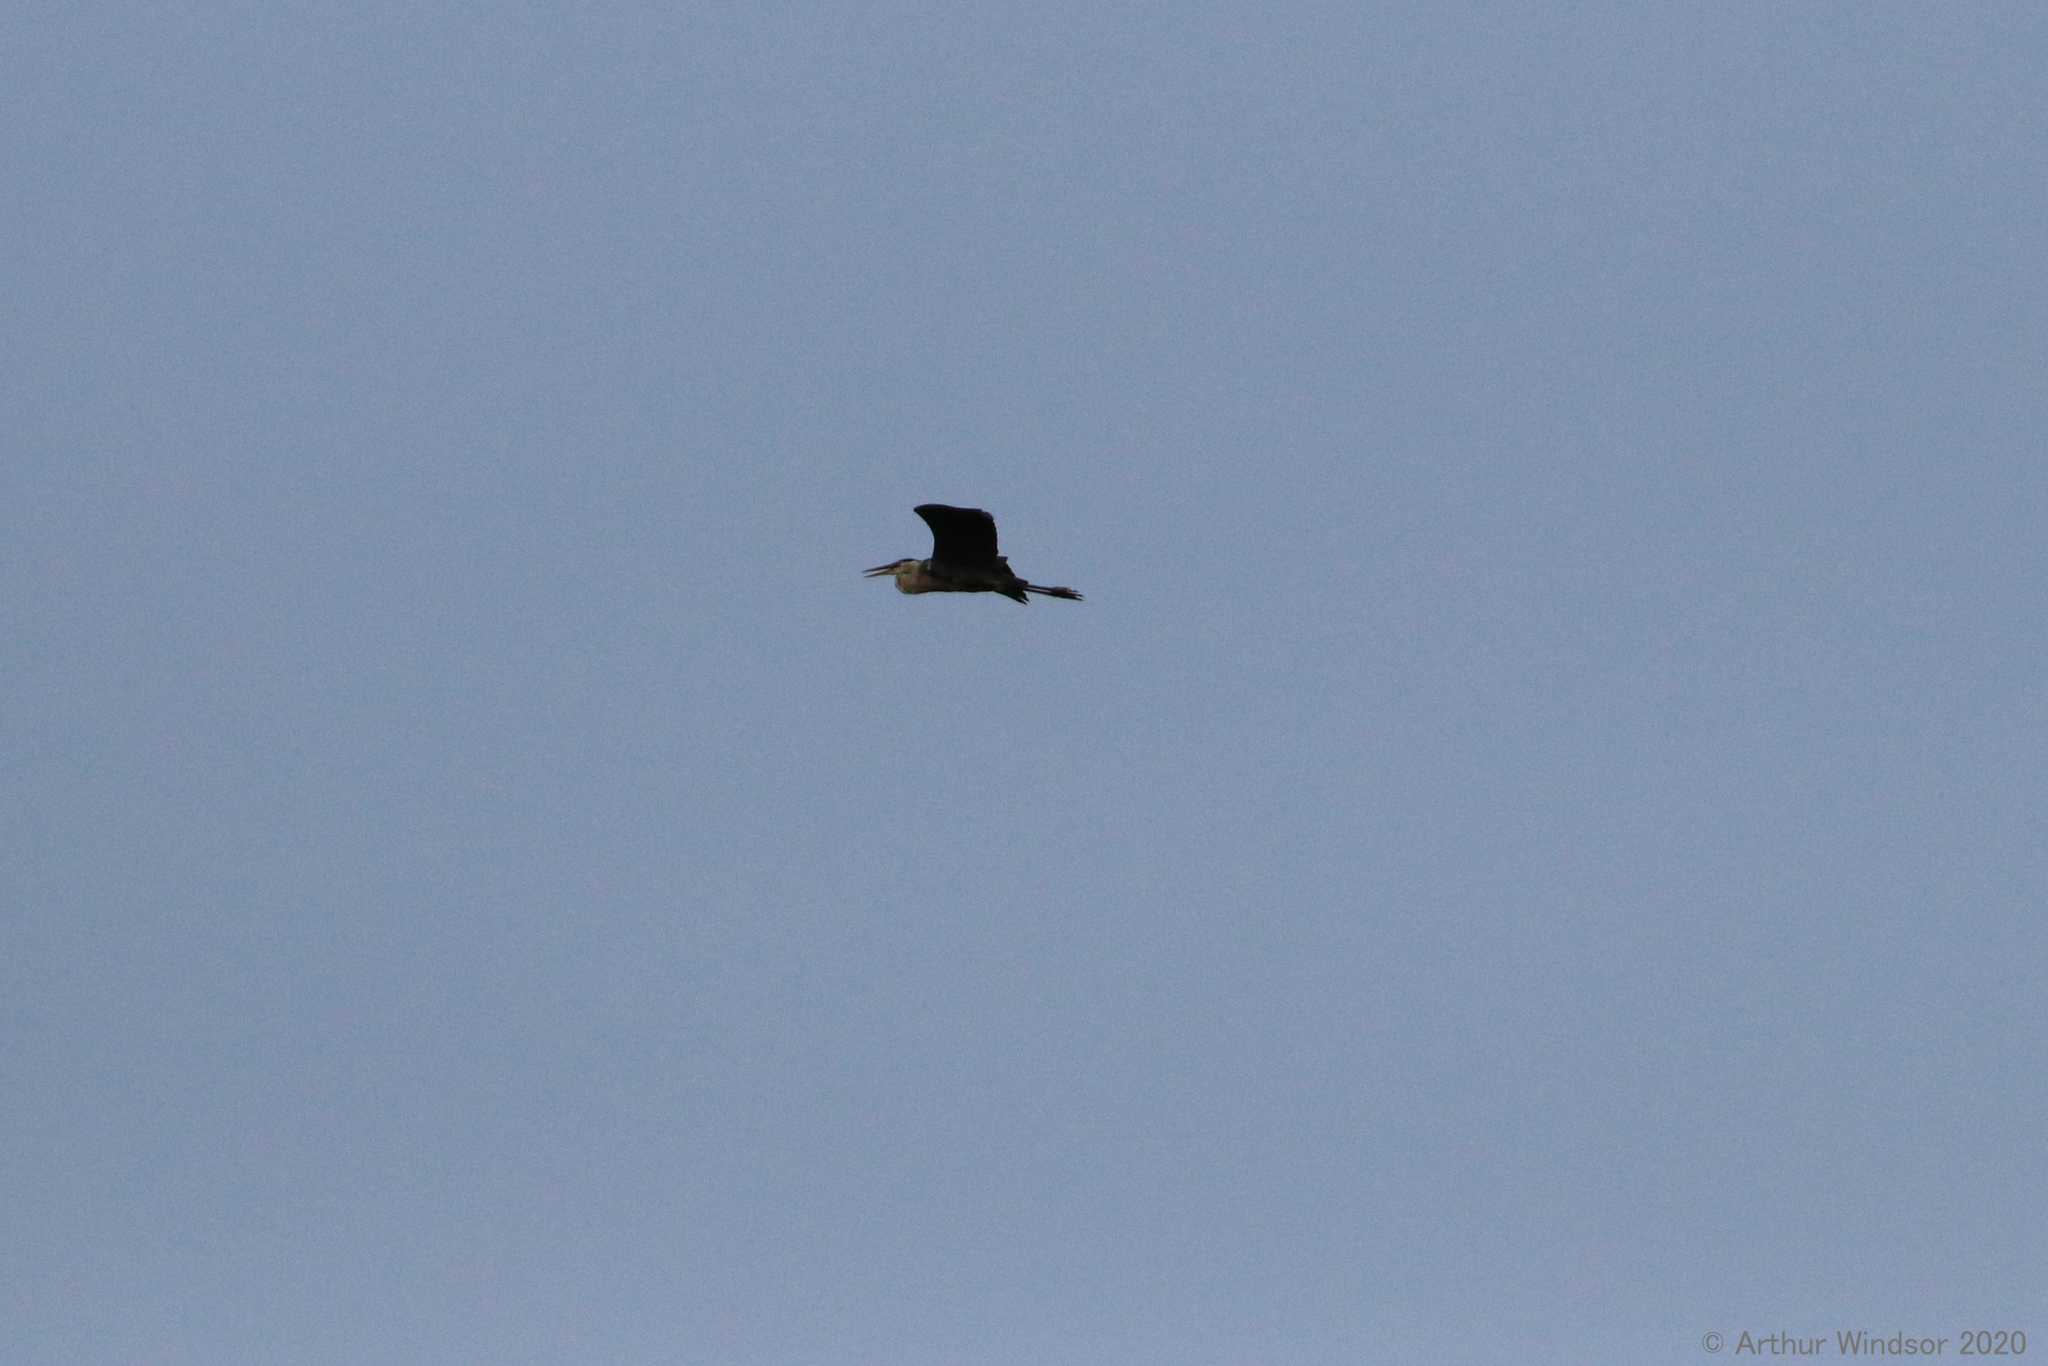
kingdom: Animalia
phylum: Chordata
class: Aves
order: Pelecaniformes
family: Ardeidae
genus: Ardea
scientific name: Ardea herodias
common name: Great blue heron
